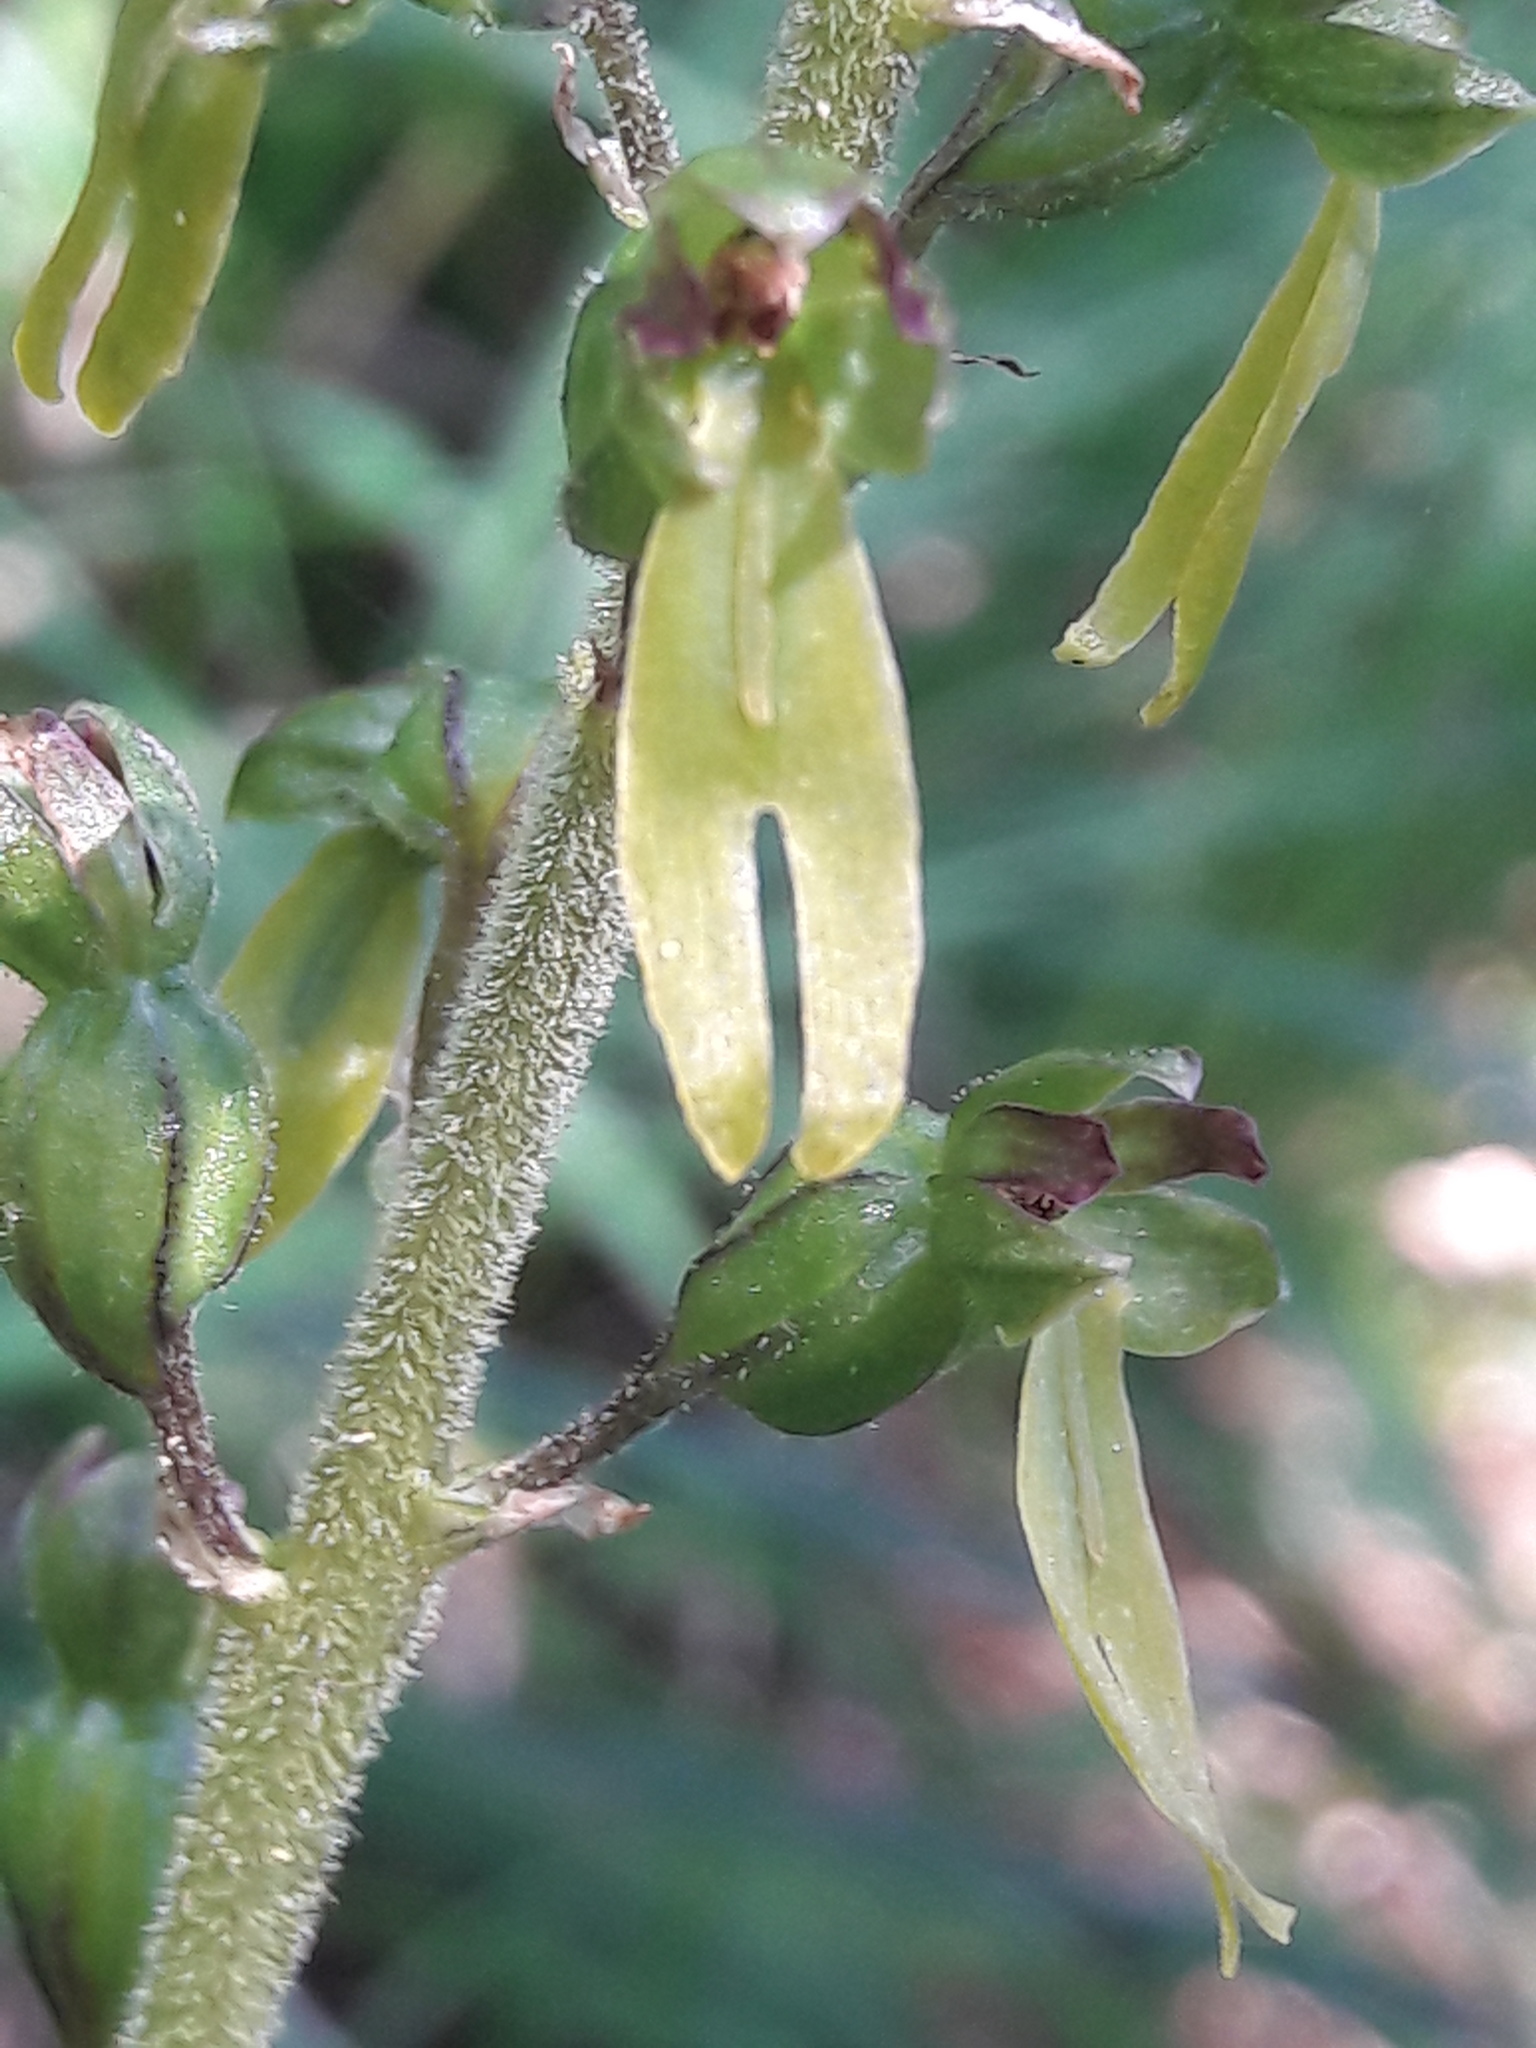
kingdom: Plantae
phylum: Tracheophyta
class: Liliopsida
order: Asparagales
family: Orchidaceae
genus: Neottia
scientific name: Neottia ovata
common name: Common twayblade
